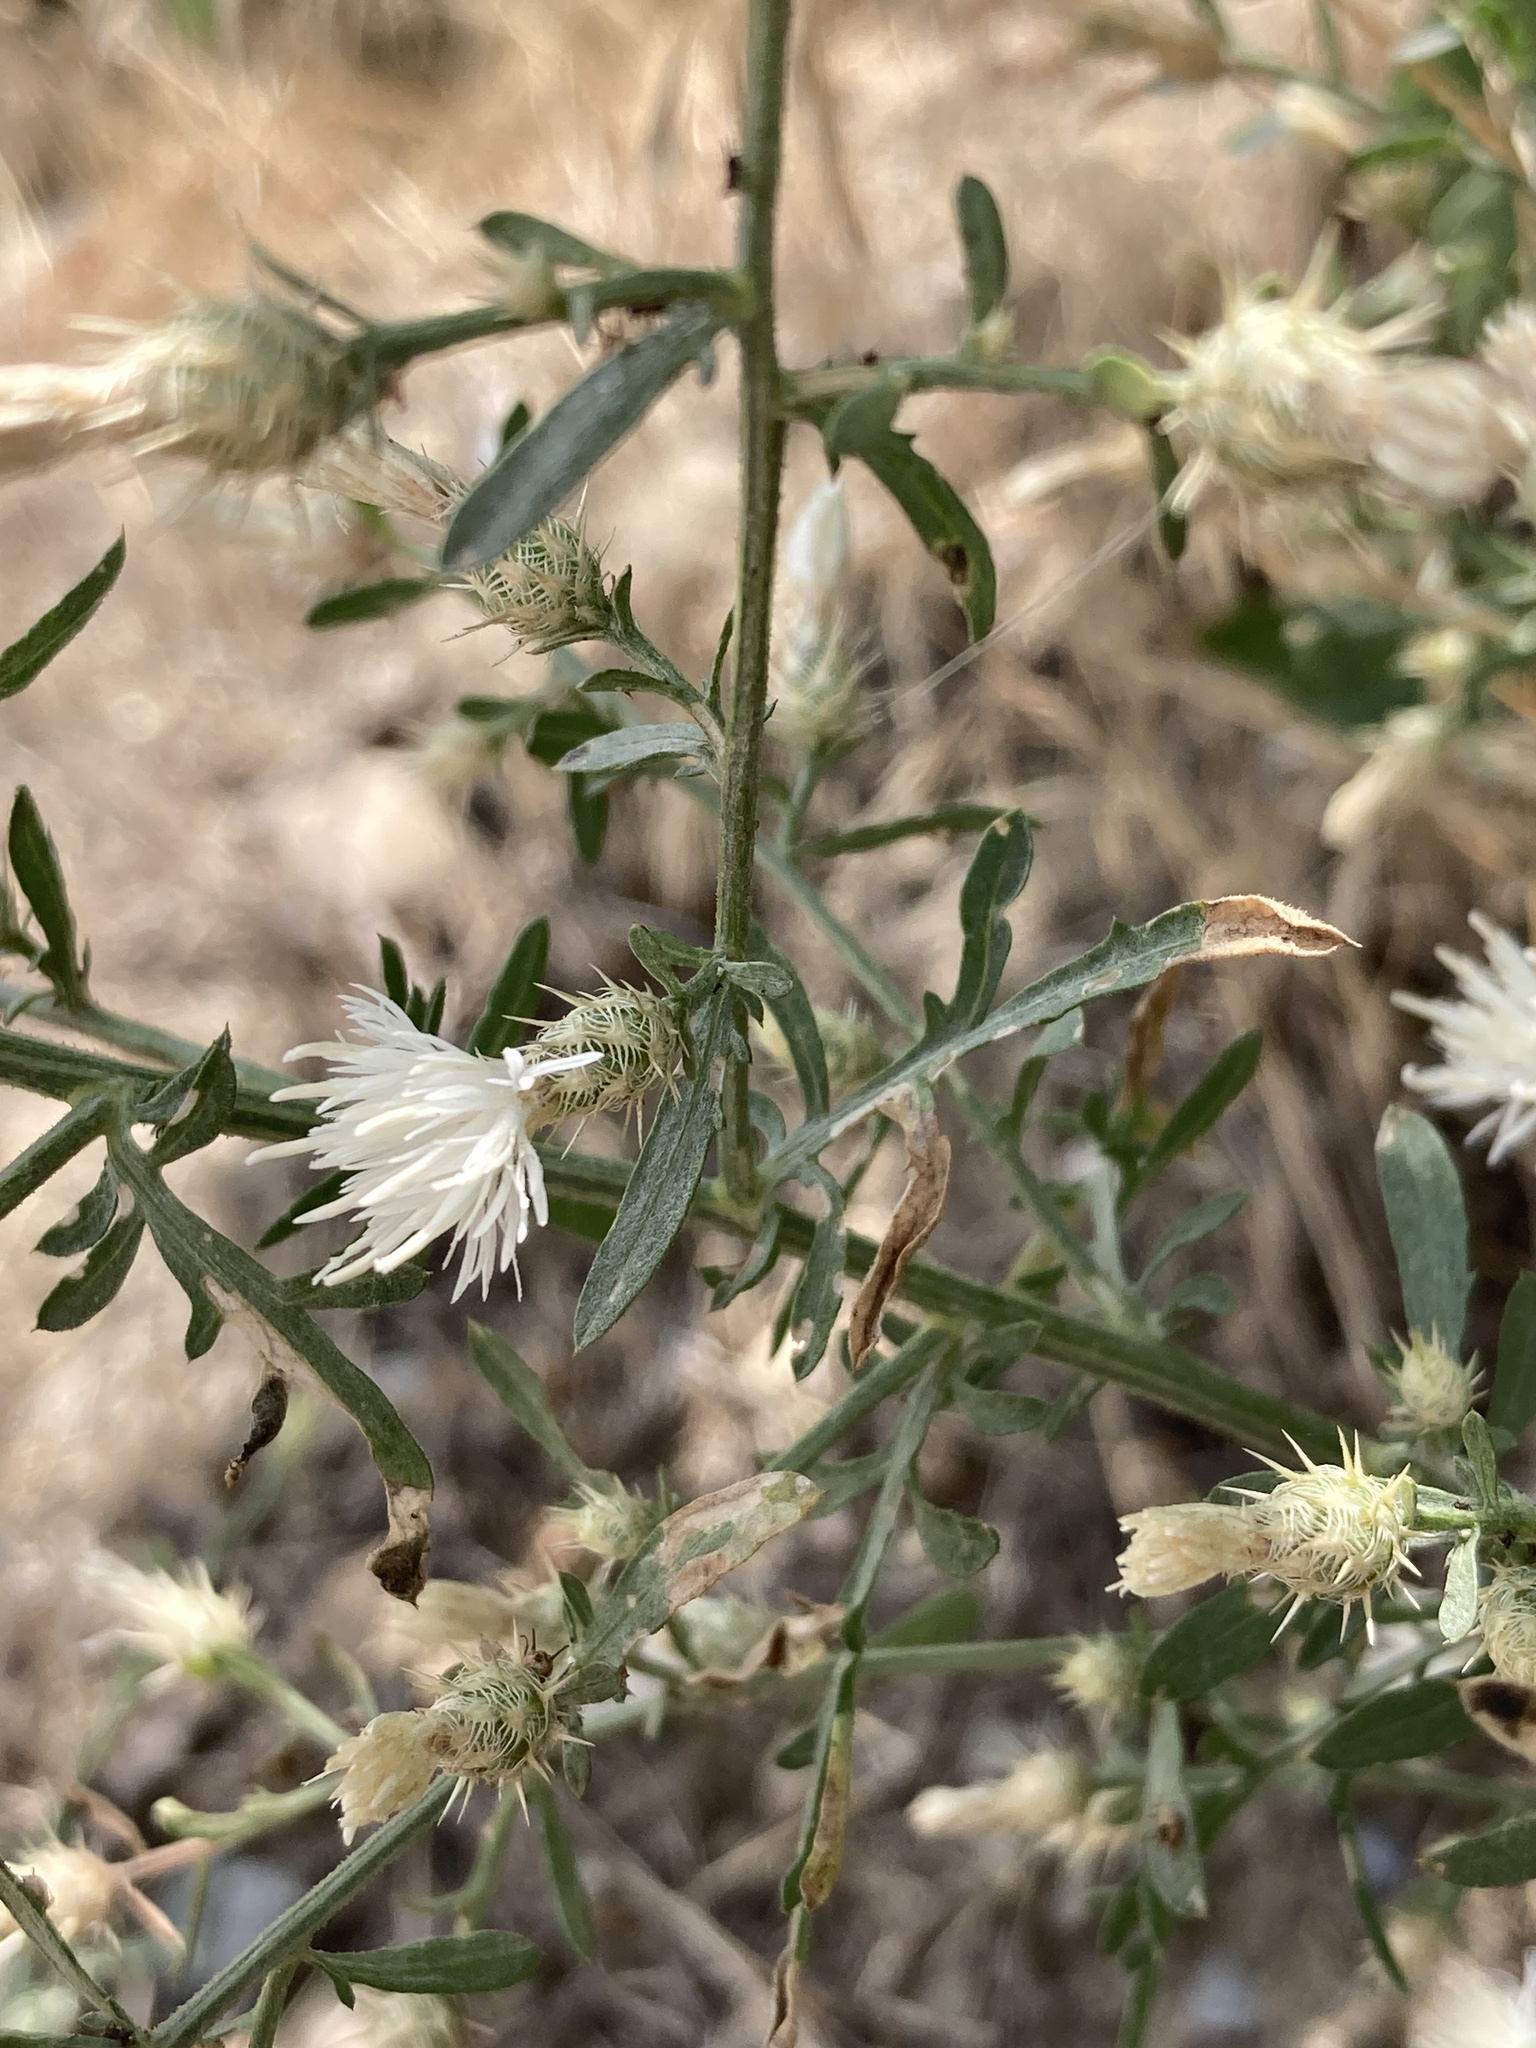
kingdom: Plantae
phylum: Tracheophyta
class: Magnoliopsida
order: Asterales
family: Asteraceae
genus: Centaurea
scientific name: Centaurea diffusa
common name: Diffuse knapweed
